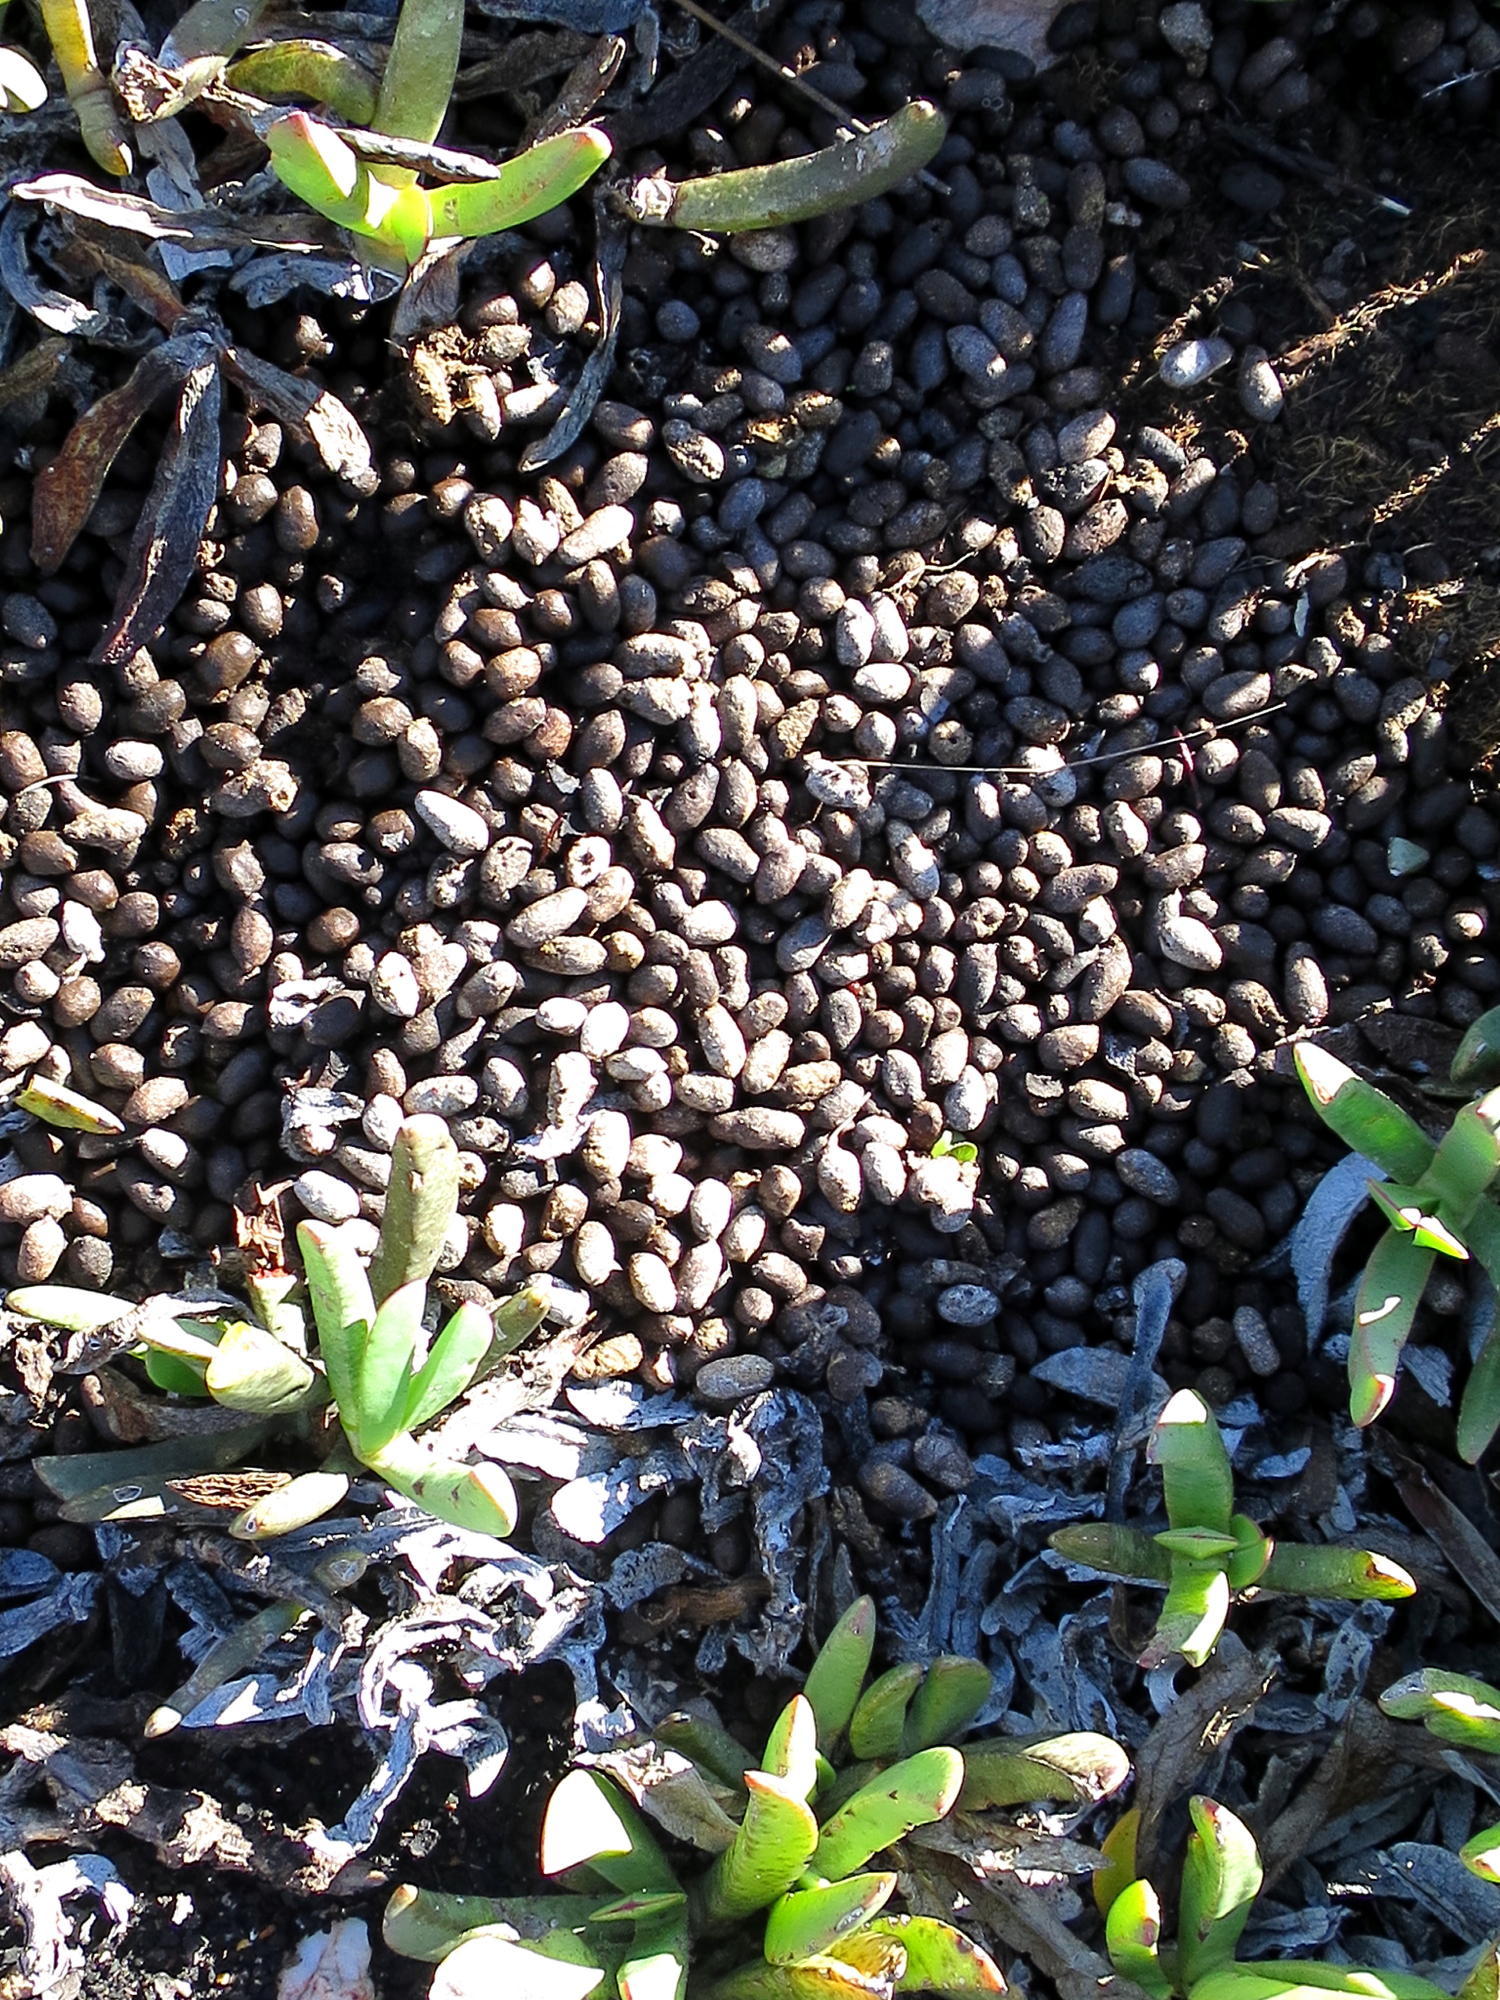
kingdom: Animalia
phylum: Chordata
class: Mammalia
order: Artiodactyla
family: Bovidae
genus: Oreotragus
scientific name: Oreotragus oreotragus
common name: Klipspringer
